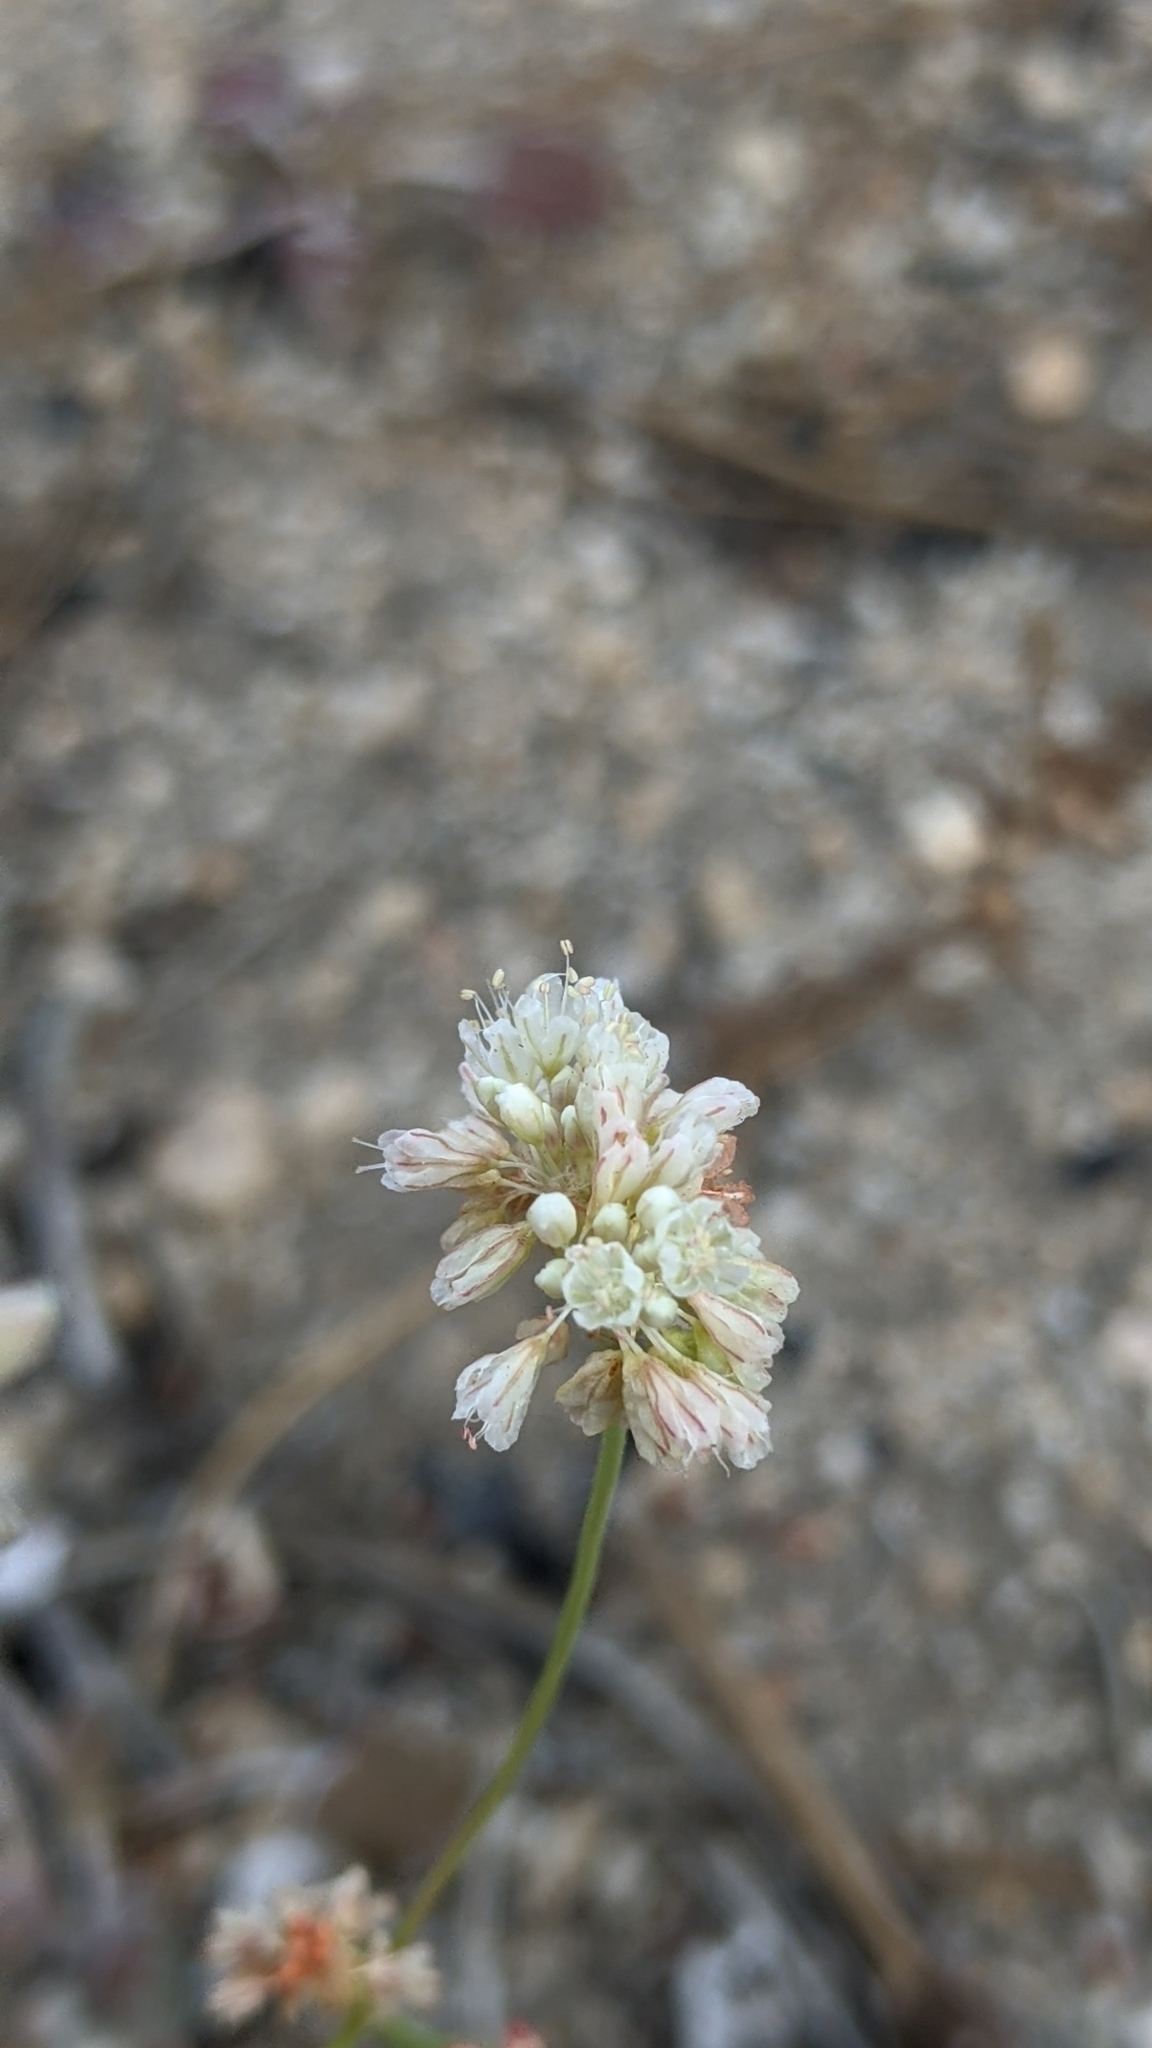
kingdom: Plantae
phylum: Tracheophyta
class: Magnoliopsida
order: Caryophyllales
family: Polygonaceae
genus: Eriogonum
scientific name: Eriogonum nudum
